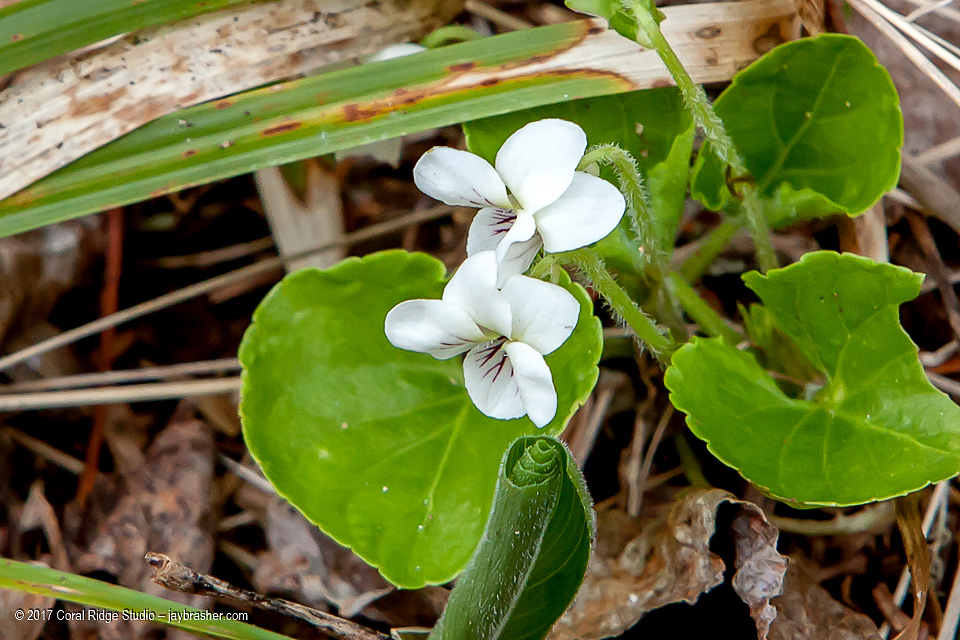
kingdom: Plantae
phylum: Tracheophyta
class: Magnoliopsida
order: Malpighiales
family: Violaceae
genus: Viola
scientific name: Viola renifolia
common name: Kidney-leaf violet
